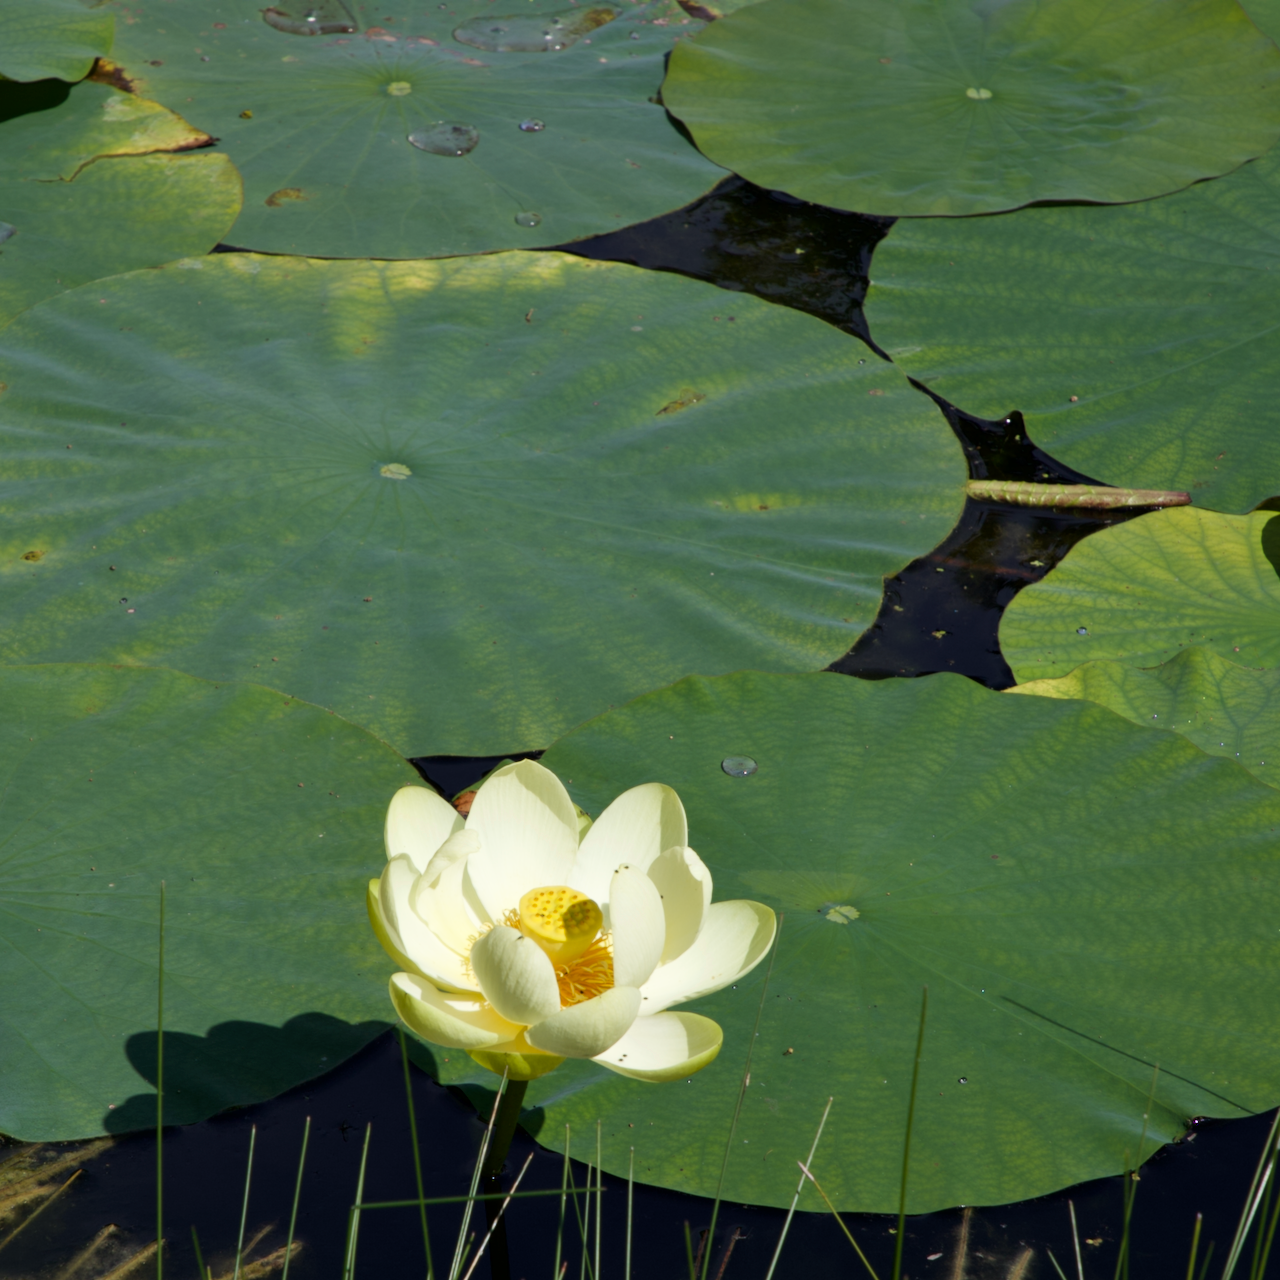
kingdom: Plantae
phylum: Tracheophyta
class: Magnoliopsida
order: Proteales
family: Nelumbonaceae
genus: Nelumbo
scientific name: Nelumbo lutea
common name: American lotus
